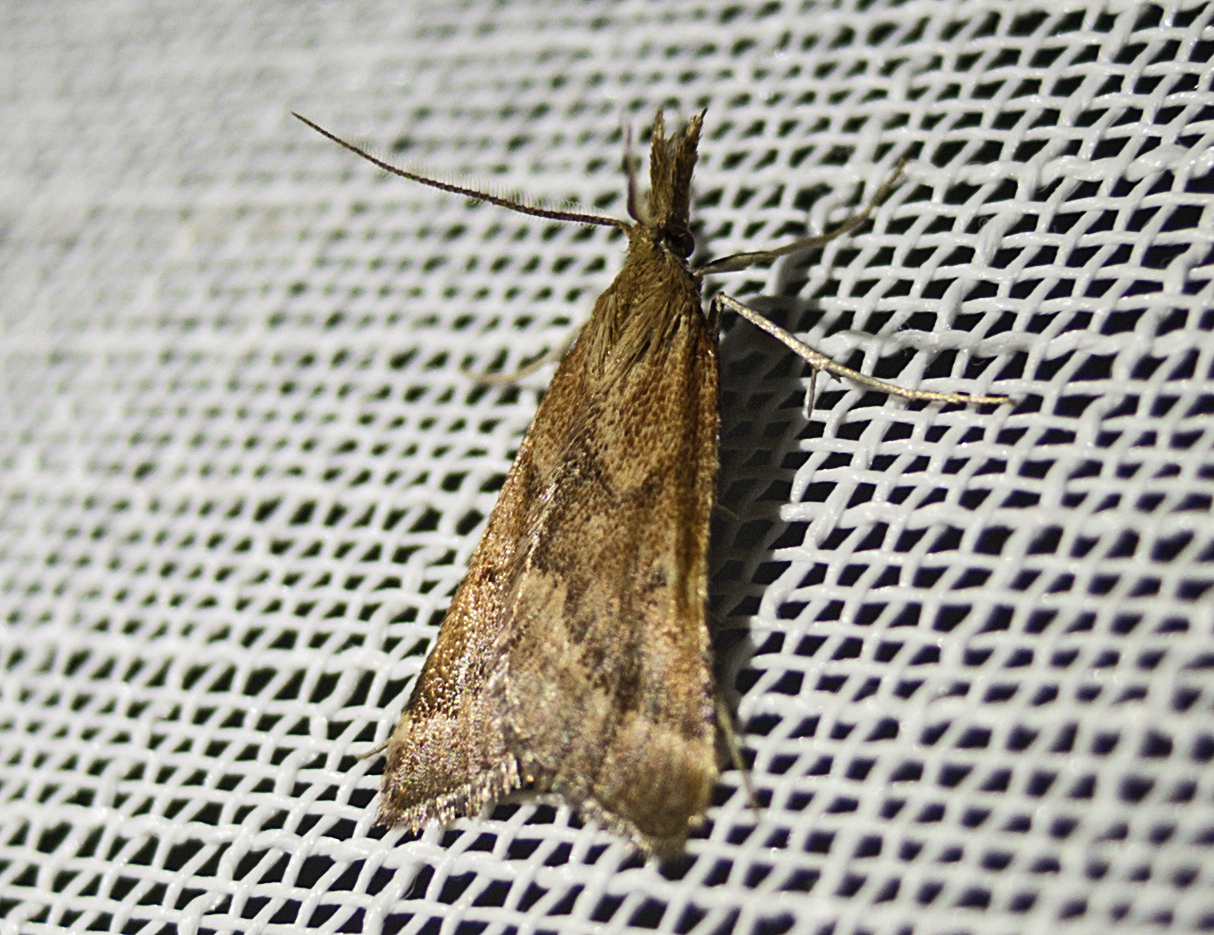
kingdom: Animalia
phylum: Arthropoda
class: Insecta
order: Lepidoptera
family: Pyralidae
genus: Synaphe
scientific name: Synaphe punctalis
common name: Long-legged tabby
